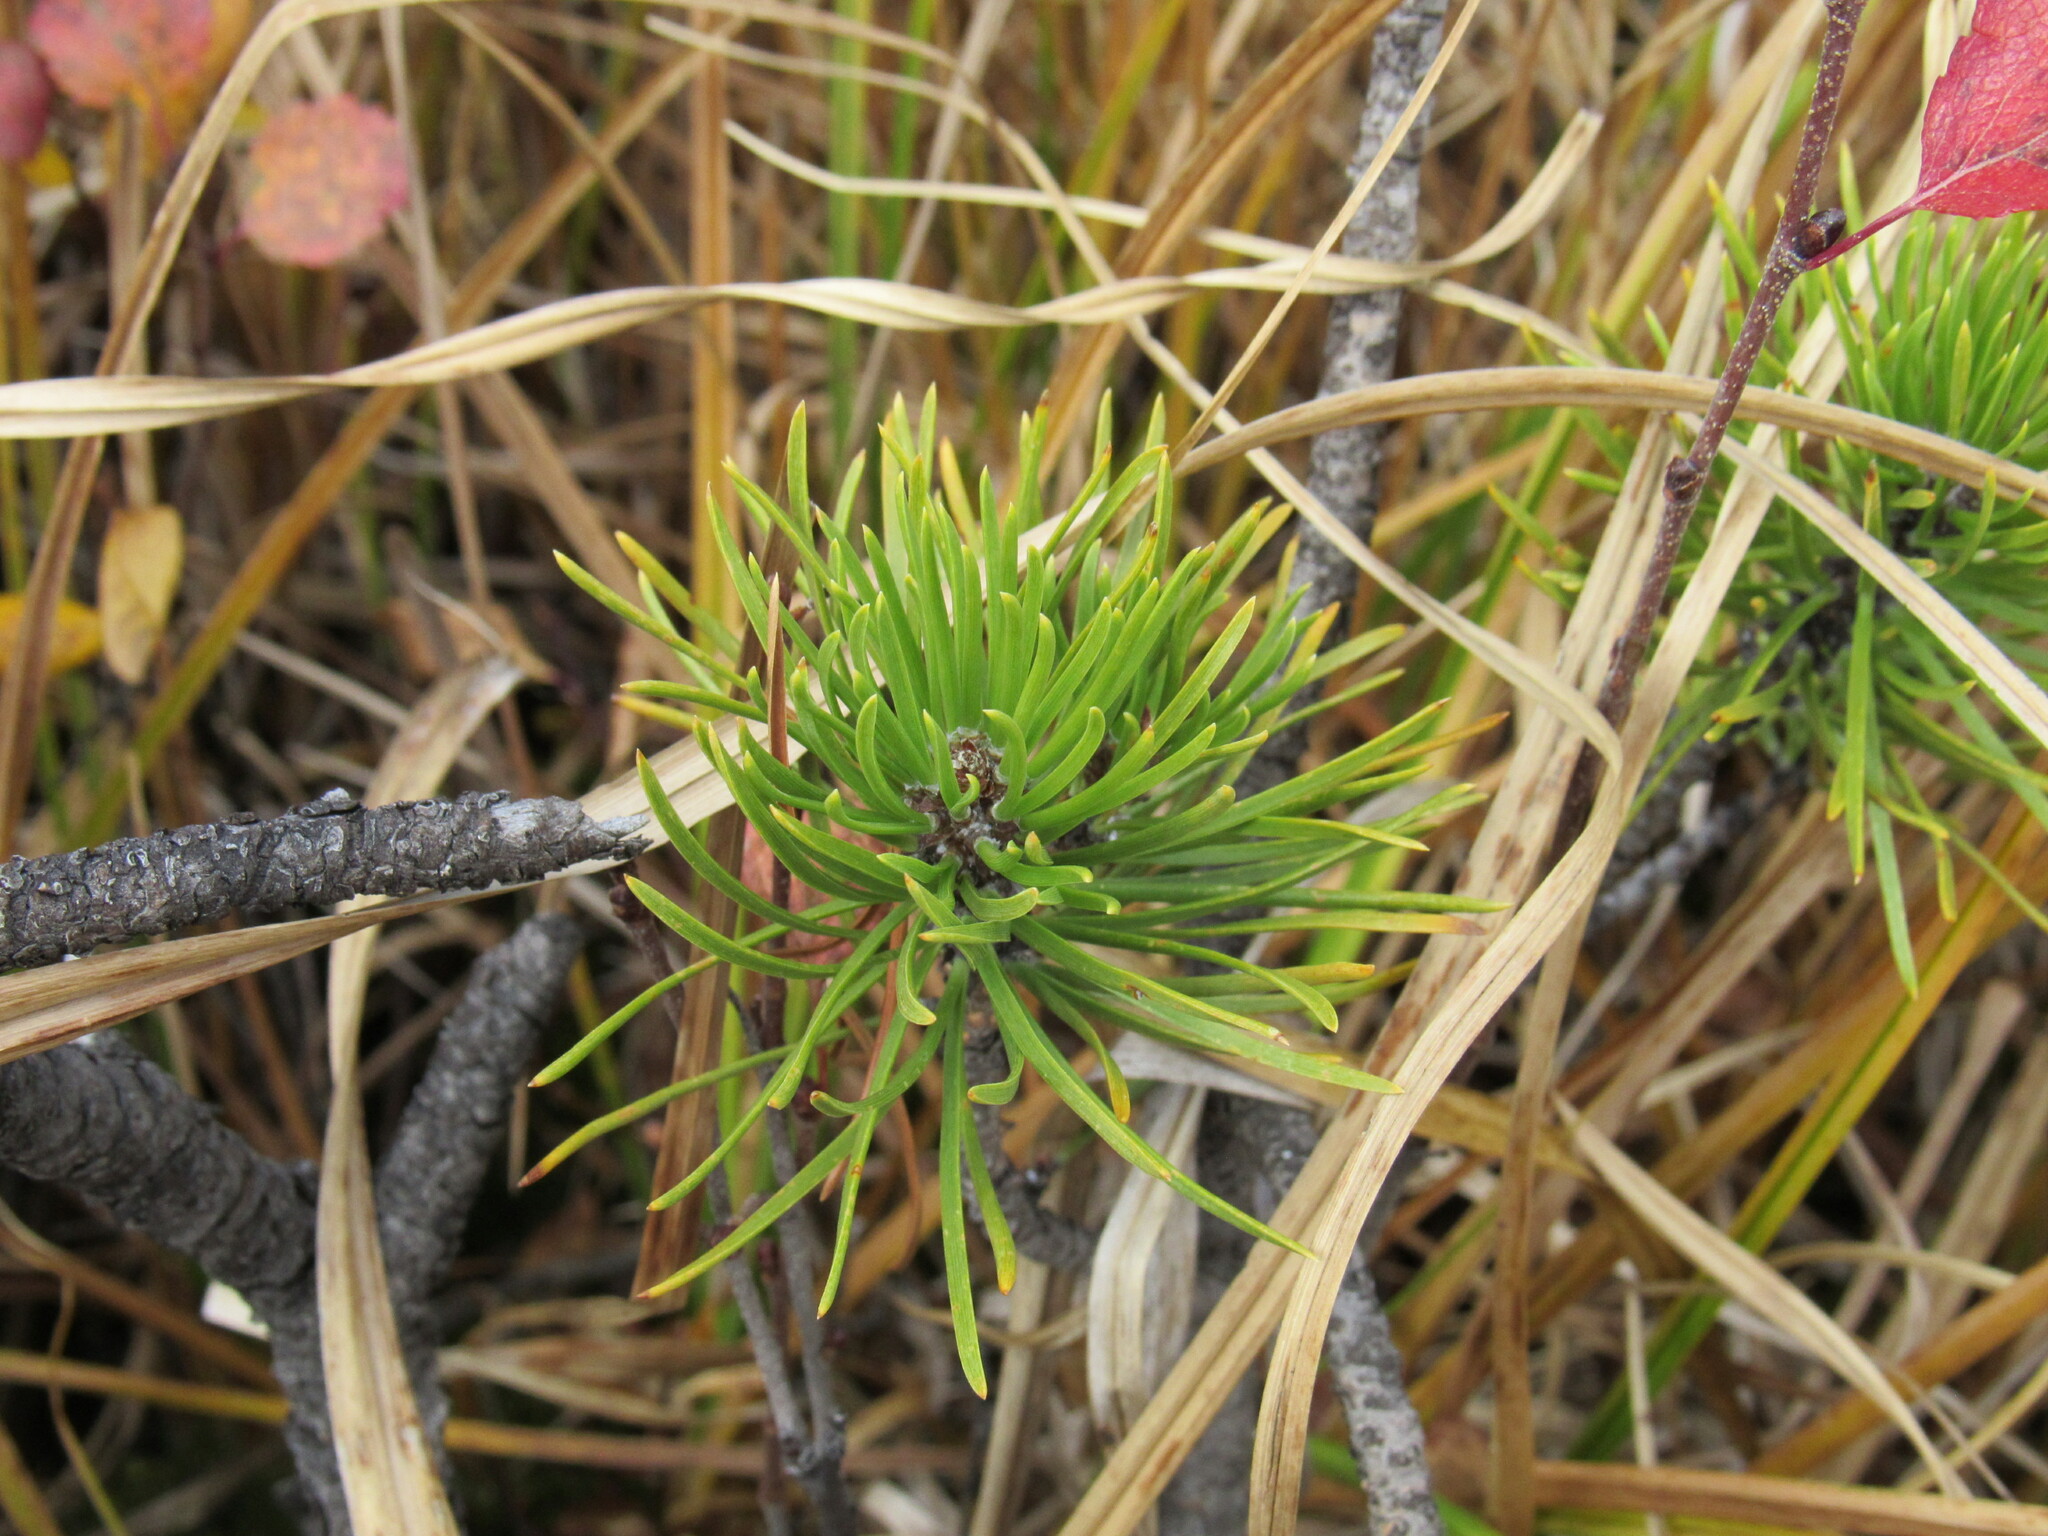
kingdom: Plantae
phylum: Tracheophyta
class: Pinopsida
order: Pinales
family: Pinaceae
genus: Pinus
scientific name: Pinus contorta
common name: Lodgepole pine
